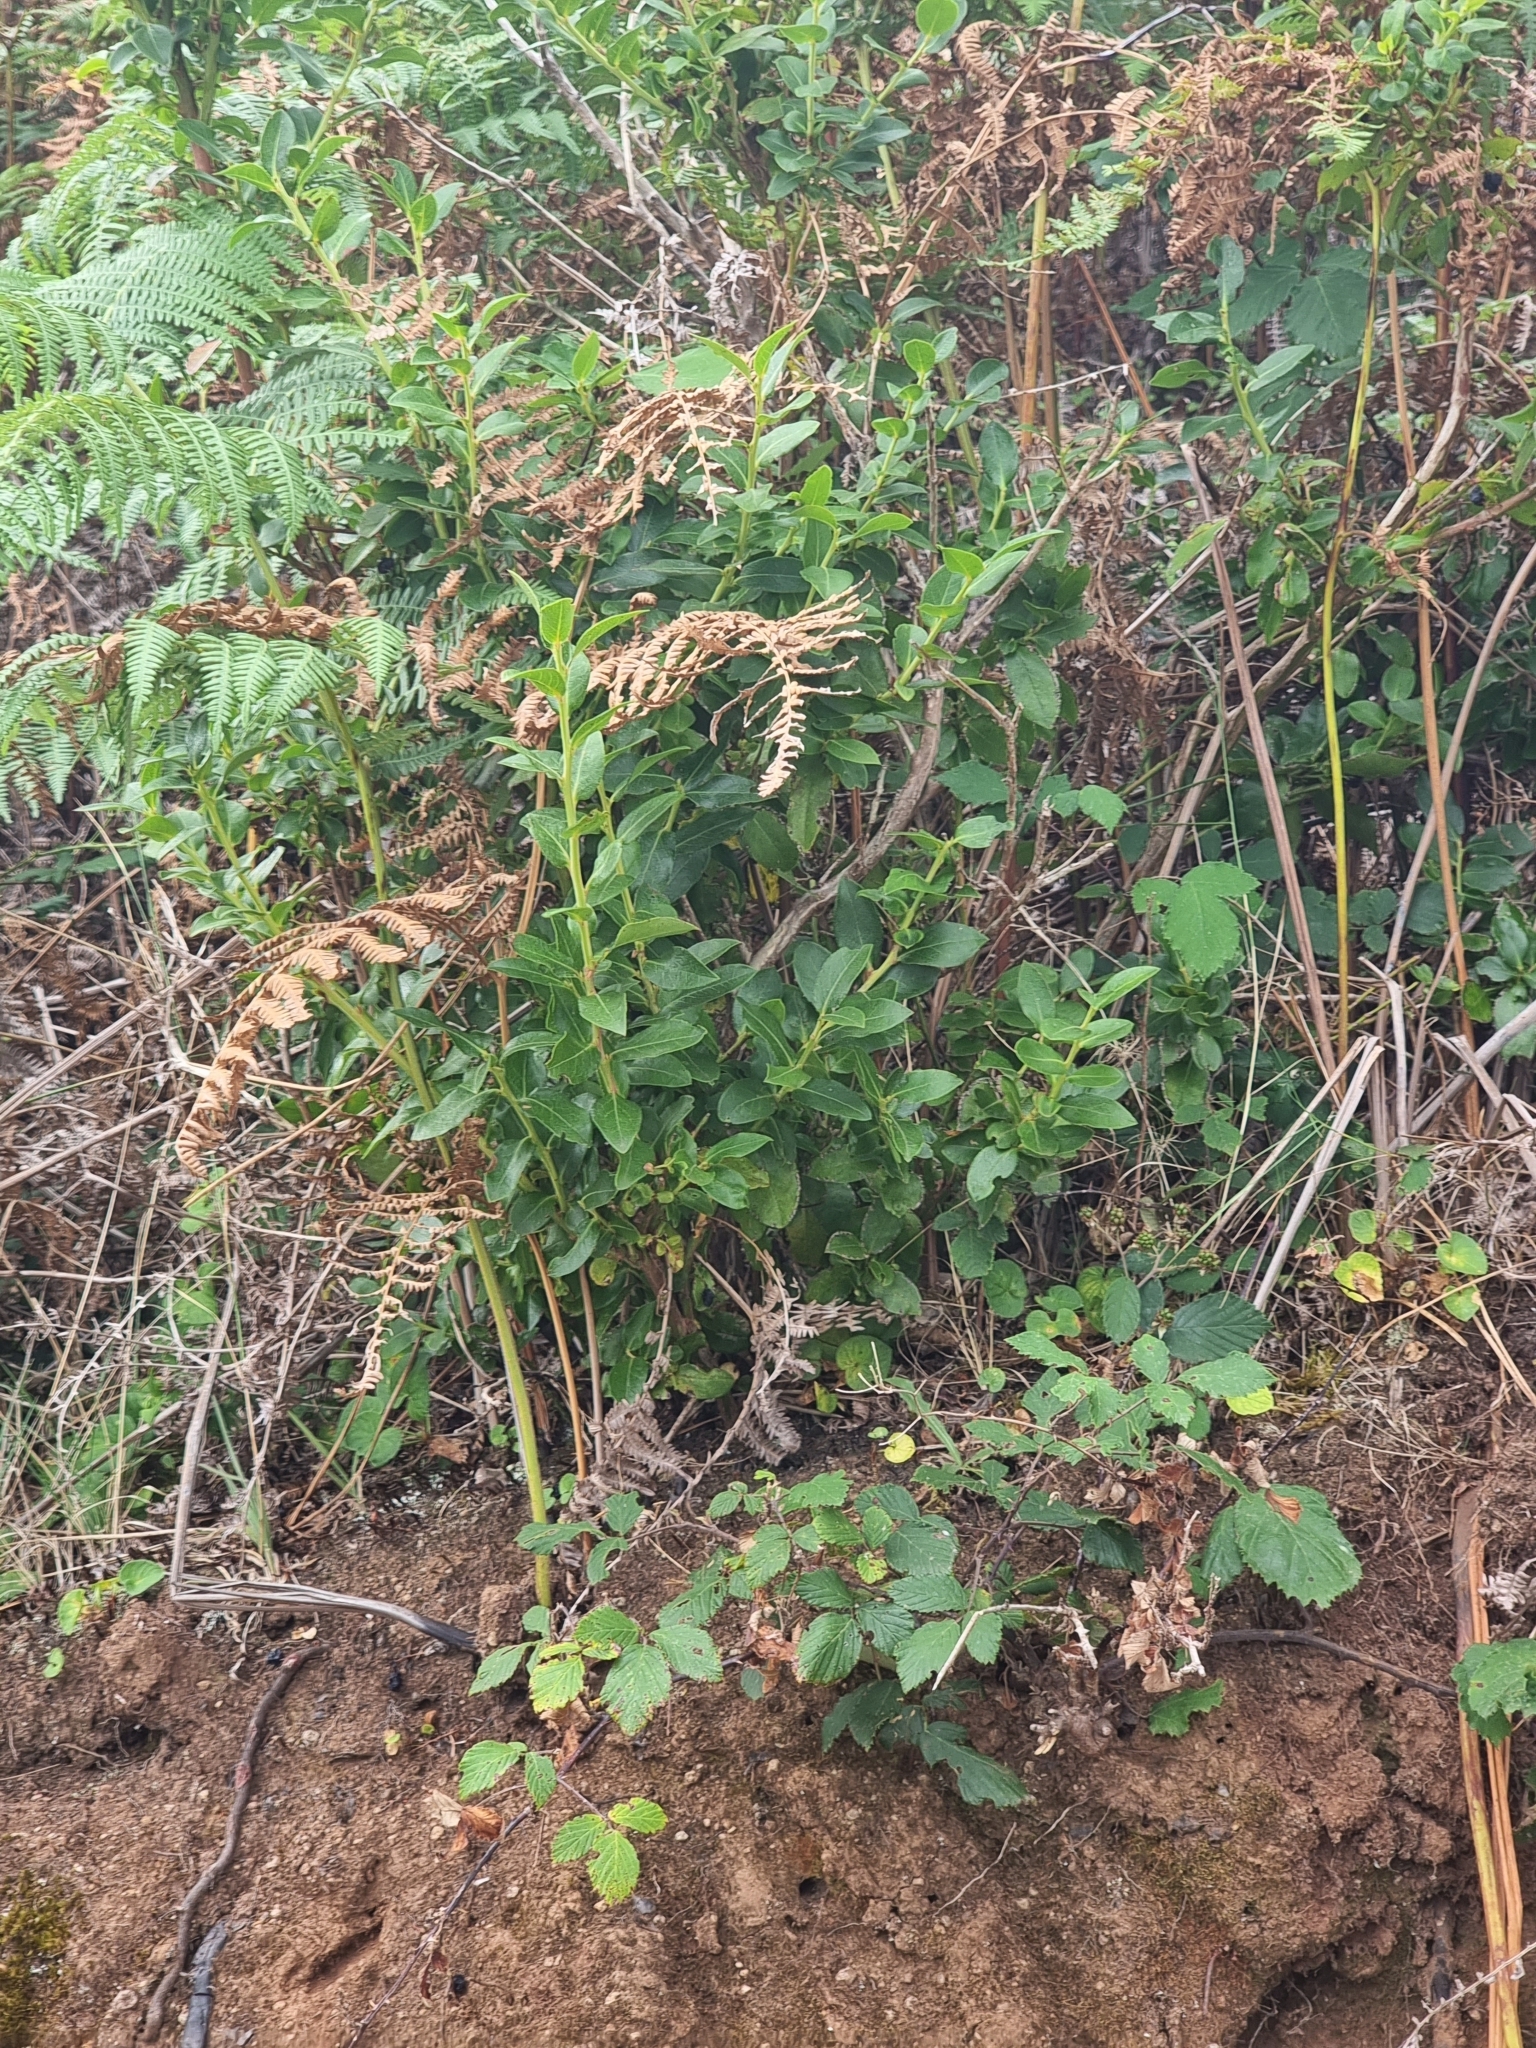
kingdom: Plantae
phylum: Tracheophyta
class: Magnoliopsida
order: Ericales
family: Ericaceae
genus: Vaccinium
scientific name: Vaccinium padifolium
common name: Madeiran blueberry
